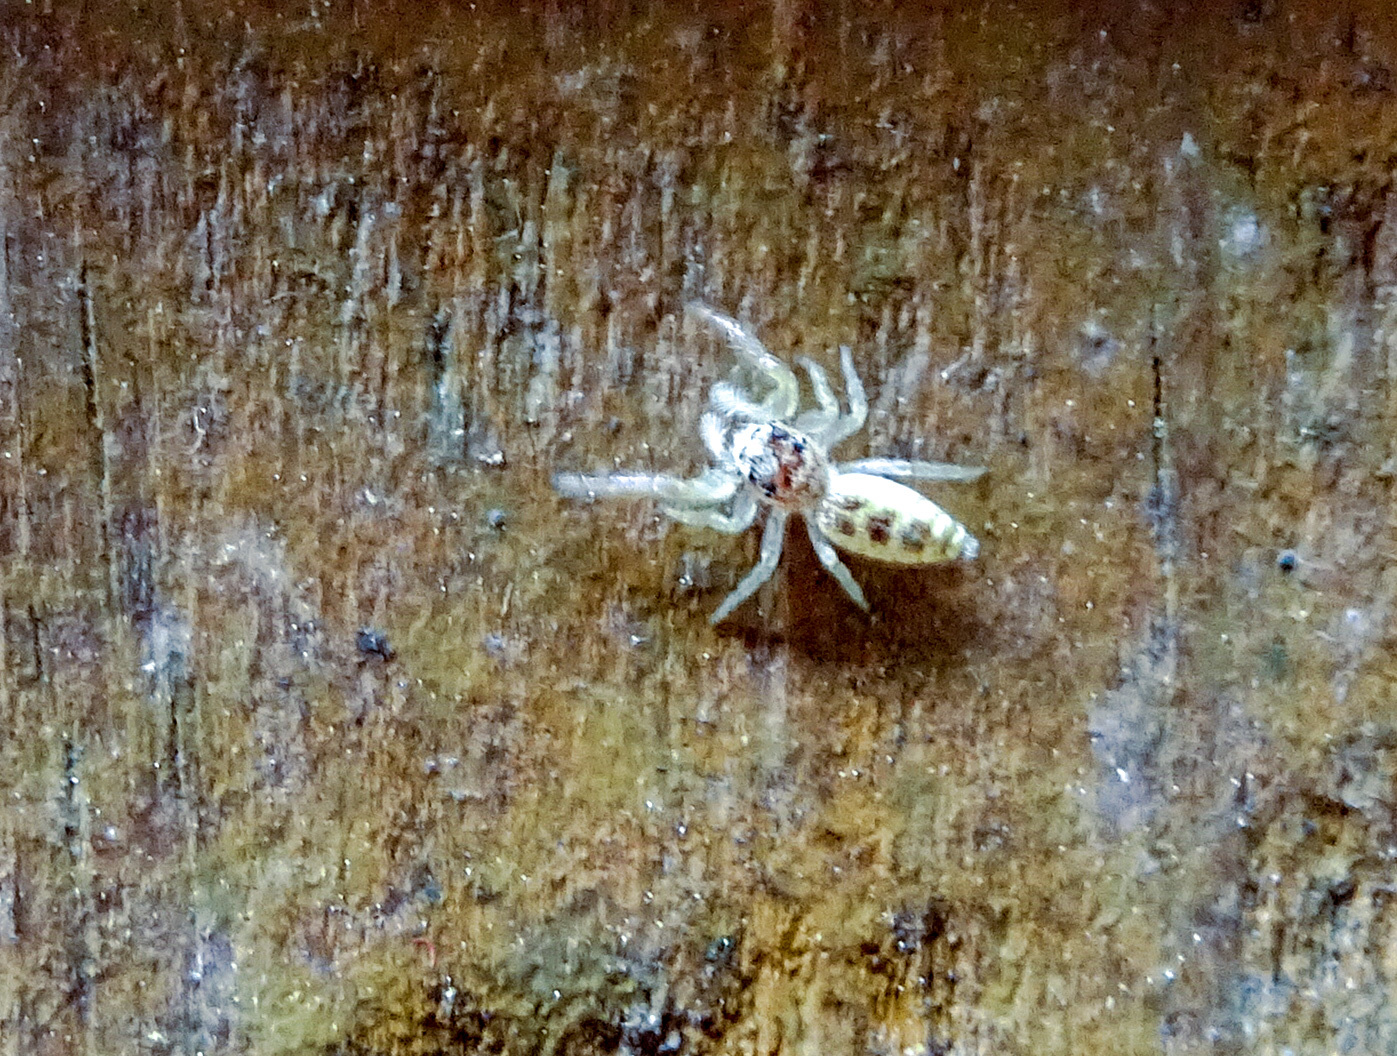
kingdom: Animalia
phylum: Arthropoda
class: Arachnida
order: Araneae
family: Salticidae
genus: Hentzia
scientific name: Hentzia mitrata
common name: White-jawed jumping spider
